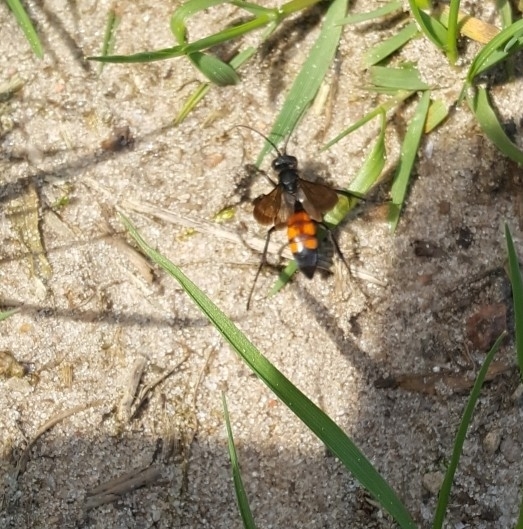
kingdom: Animalia
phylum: Arthropoda
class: Insecta
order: Hymenoptera
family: Pompilidae
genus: Anoplius
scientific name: Anoplius viaticus
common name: Black banded spider wasp
